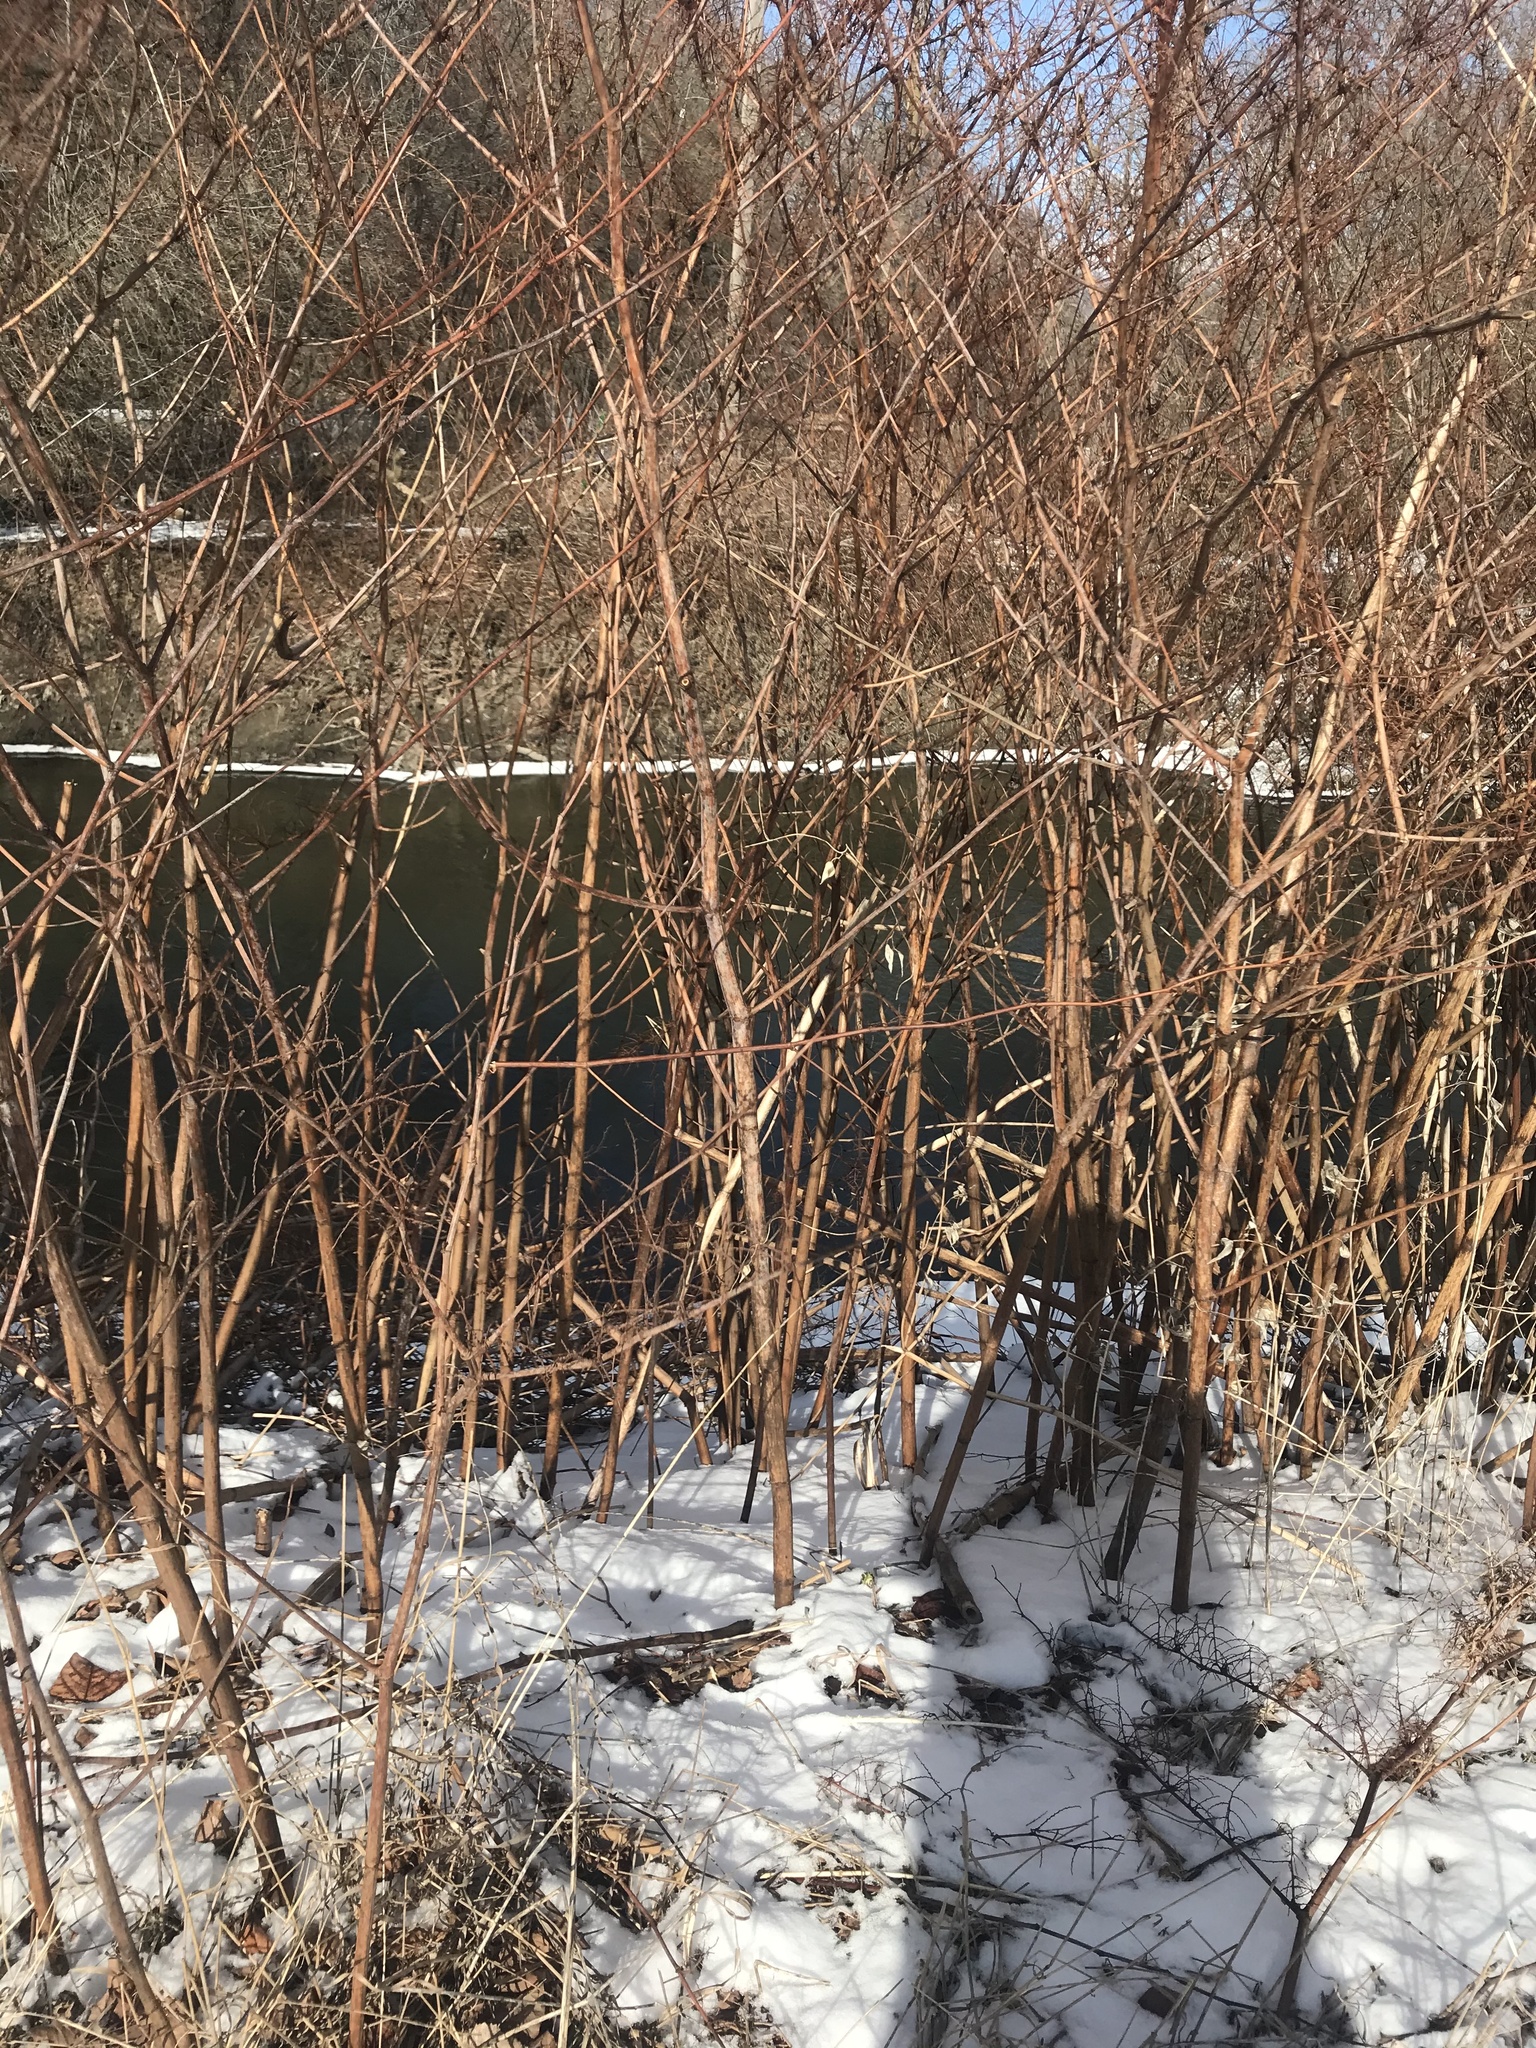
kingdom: Plantae
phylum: Tracheophyta
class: Magnoliopsida
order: Caryophyllales
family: Polygonaceae
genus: Reynoutria
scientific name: Reynoutria japonica
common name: Japanese knotweed
